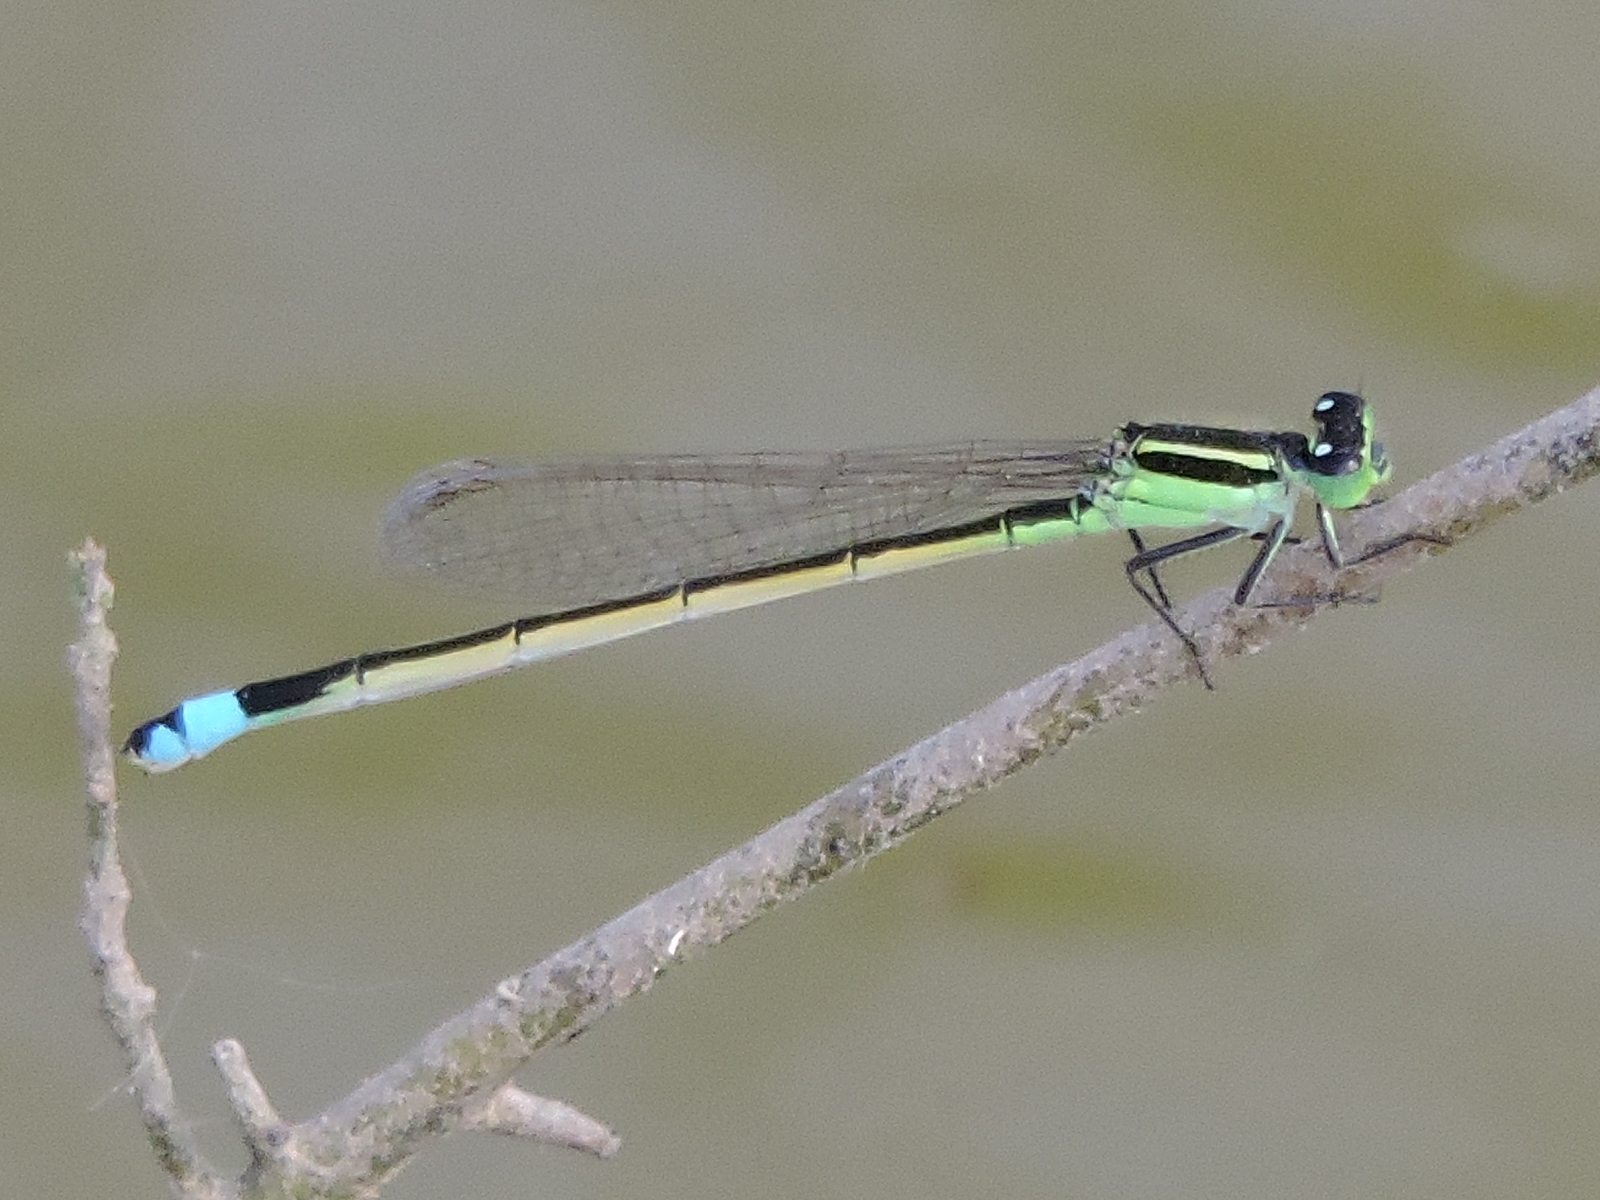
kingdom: Animalia
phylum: Arthropoda
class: Insecta
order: Odonata
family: Coenagrionidae
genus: Ischnura
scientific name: Ischnura ramburii
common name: Rambur's forktail
